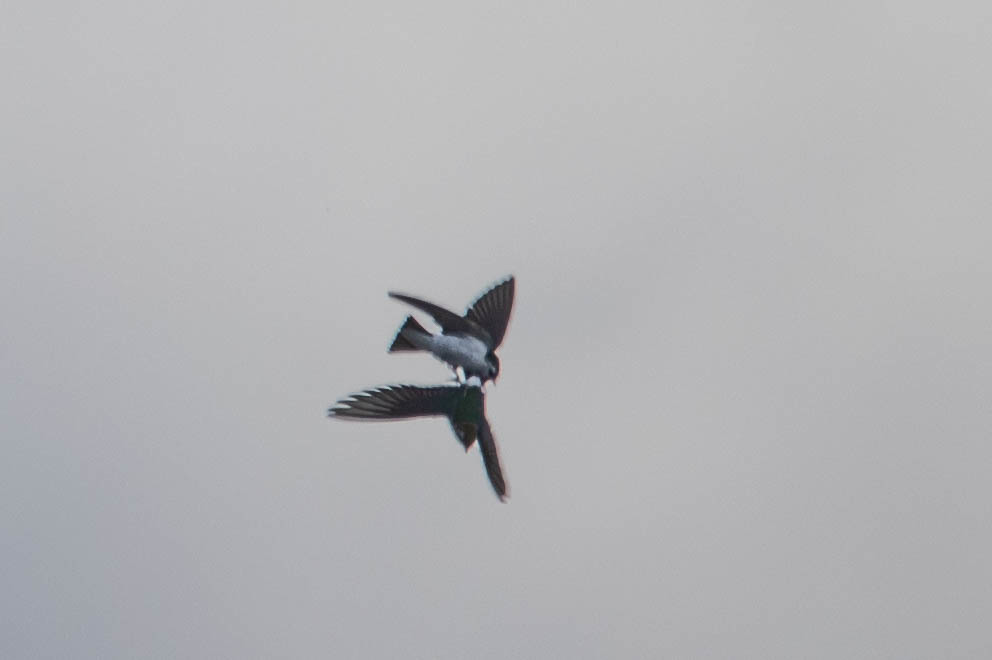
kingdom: Animalia
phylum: Chordata
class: Aves
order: Passeriformes
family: Hirundinidae
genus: Tachycineta
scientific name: Tachycineta thalassina
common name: Violet-green swallow
